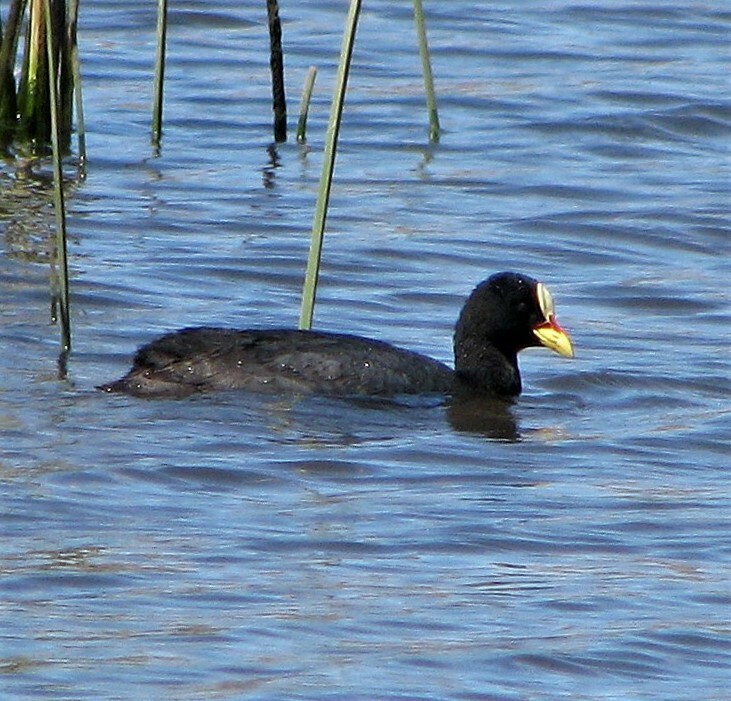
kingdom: Animalia
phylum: Chordata
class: Aves
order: Gruiformes
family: Rallidae
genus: Fulica
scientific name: Fulica armillata
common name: Red-gartered coot
